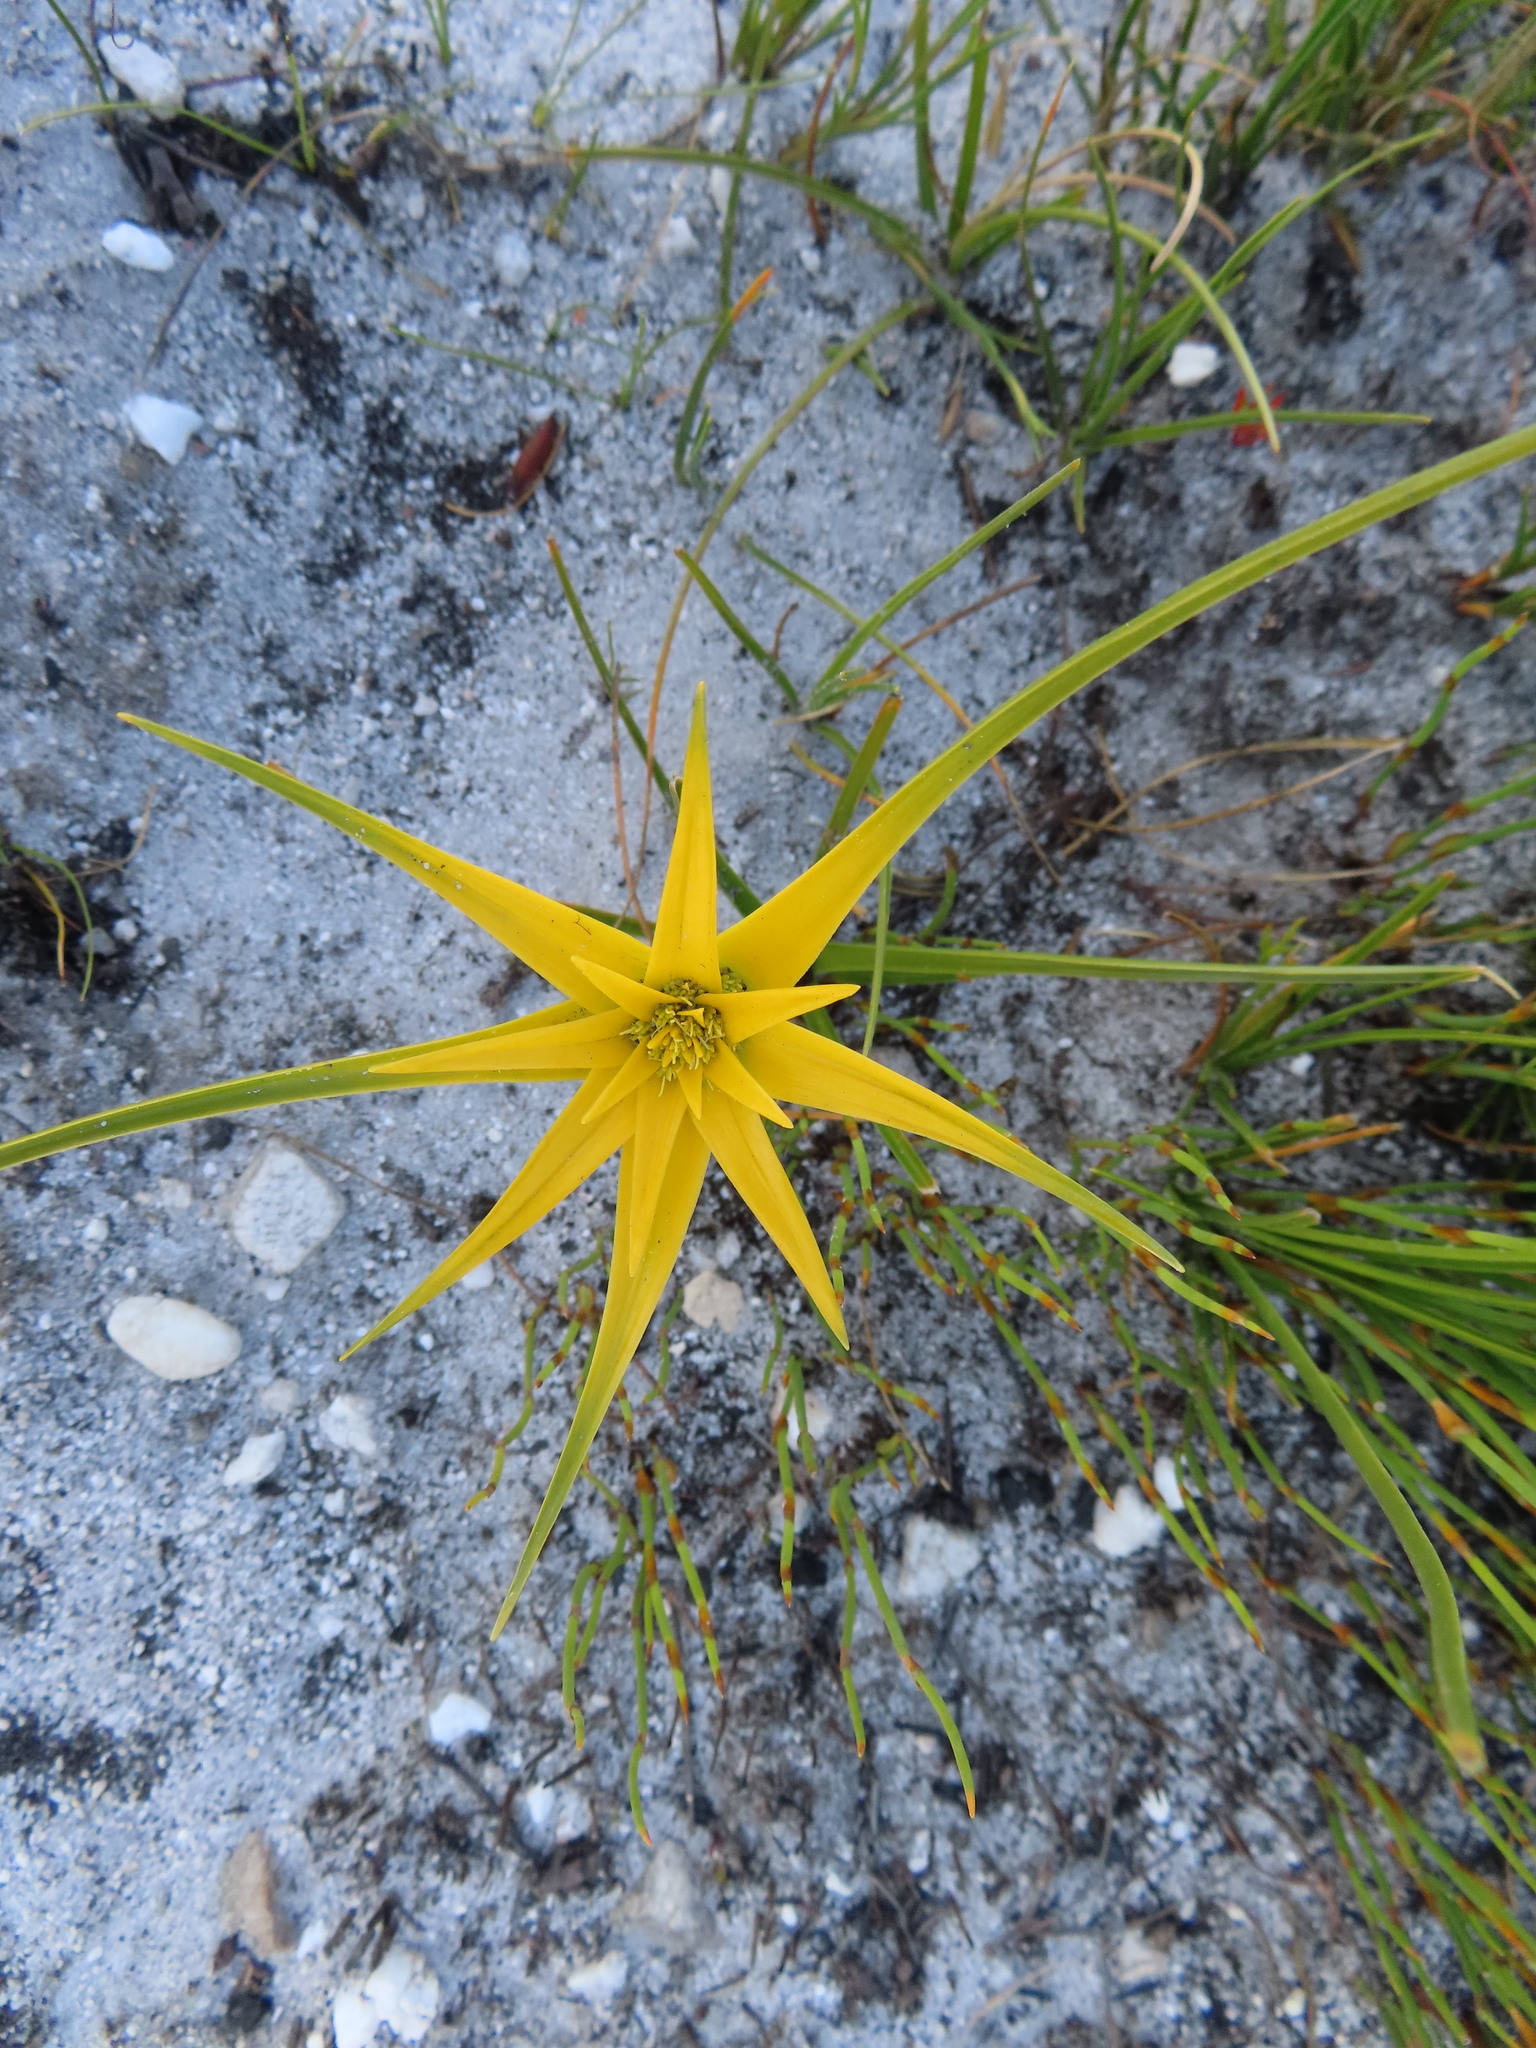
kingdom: Plantae
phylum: Tracheophyta
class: Liliopsida
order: Poales
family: Cyperaceae
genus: Ficinia
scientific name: Ficinia radiata
